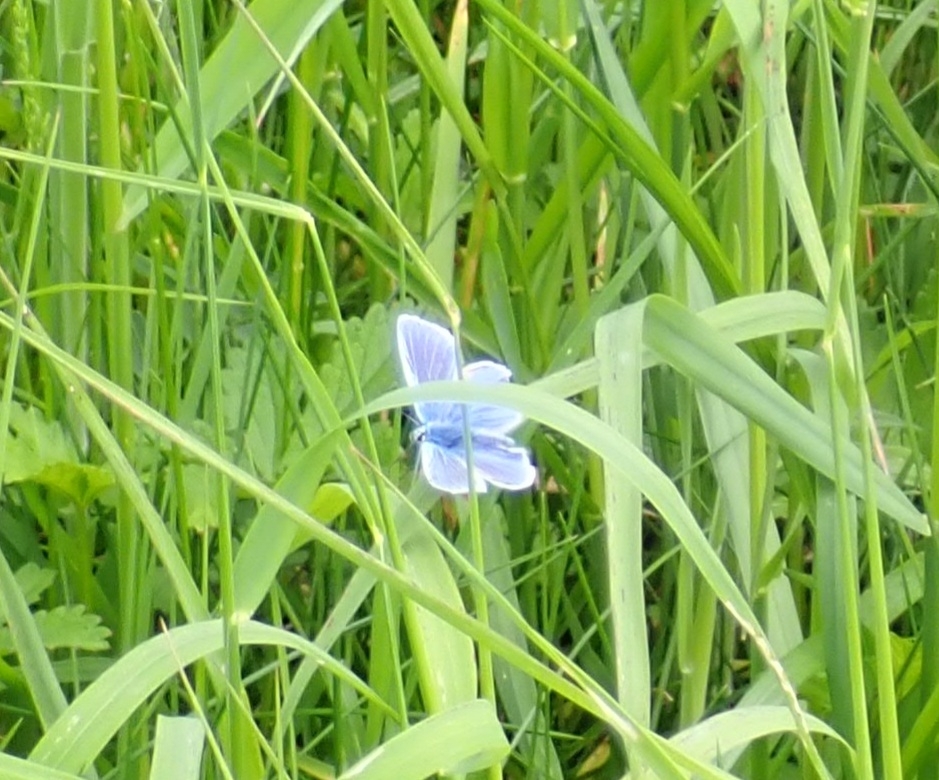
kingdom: Animalia
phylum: Arthropoda
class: Insecta
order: Lepidoptera
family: Lycaenidae
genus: Polyommatus
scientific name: Polyommatus icarus
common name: Common blue
